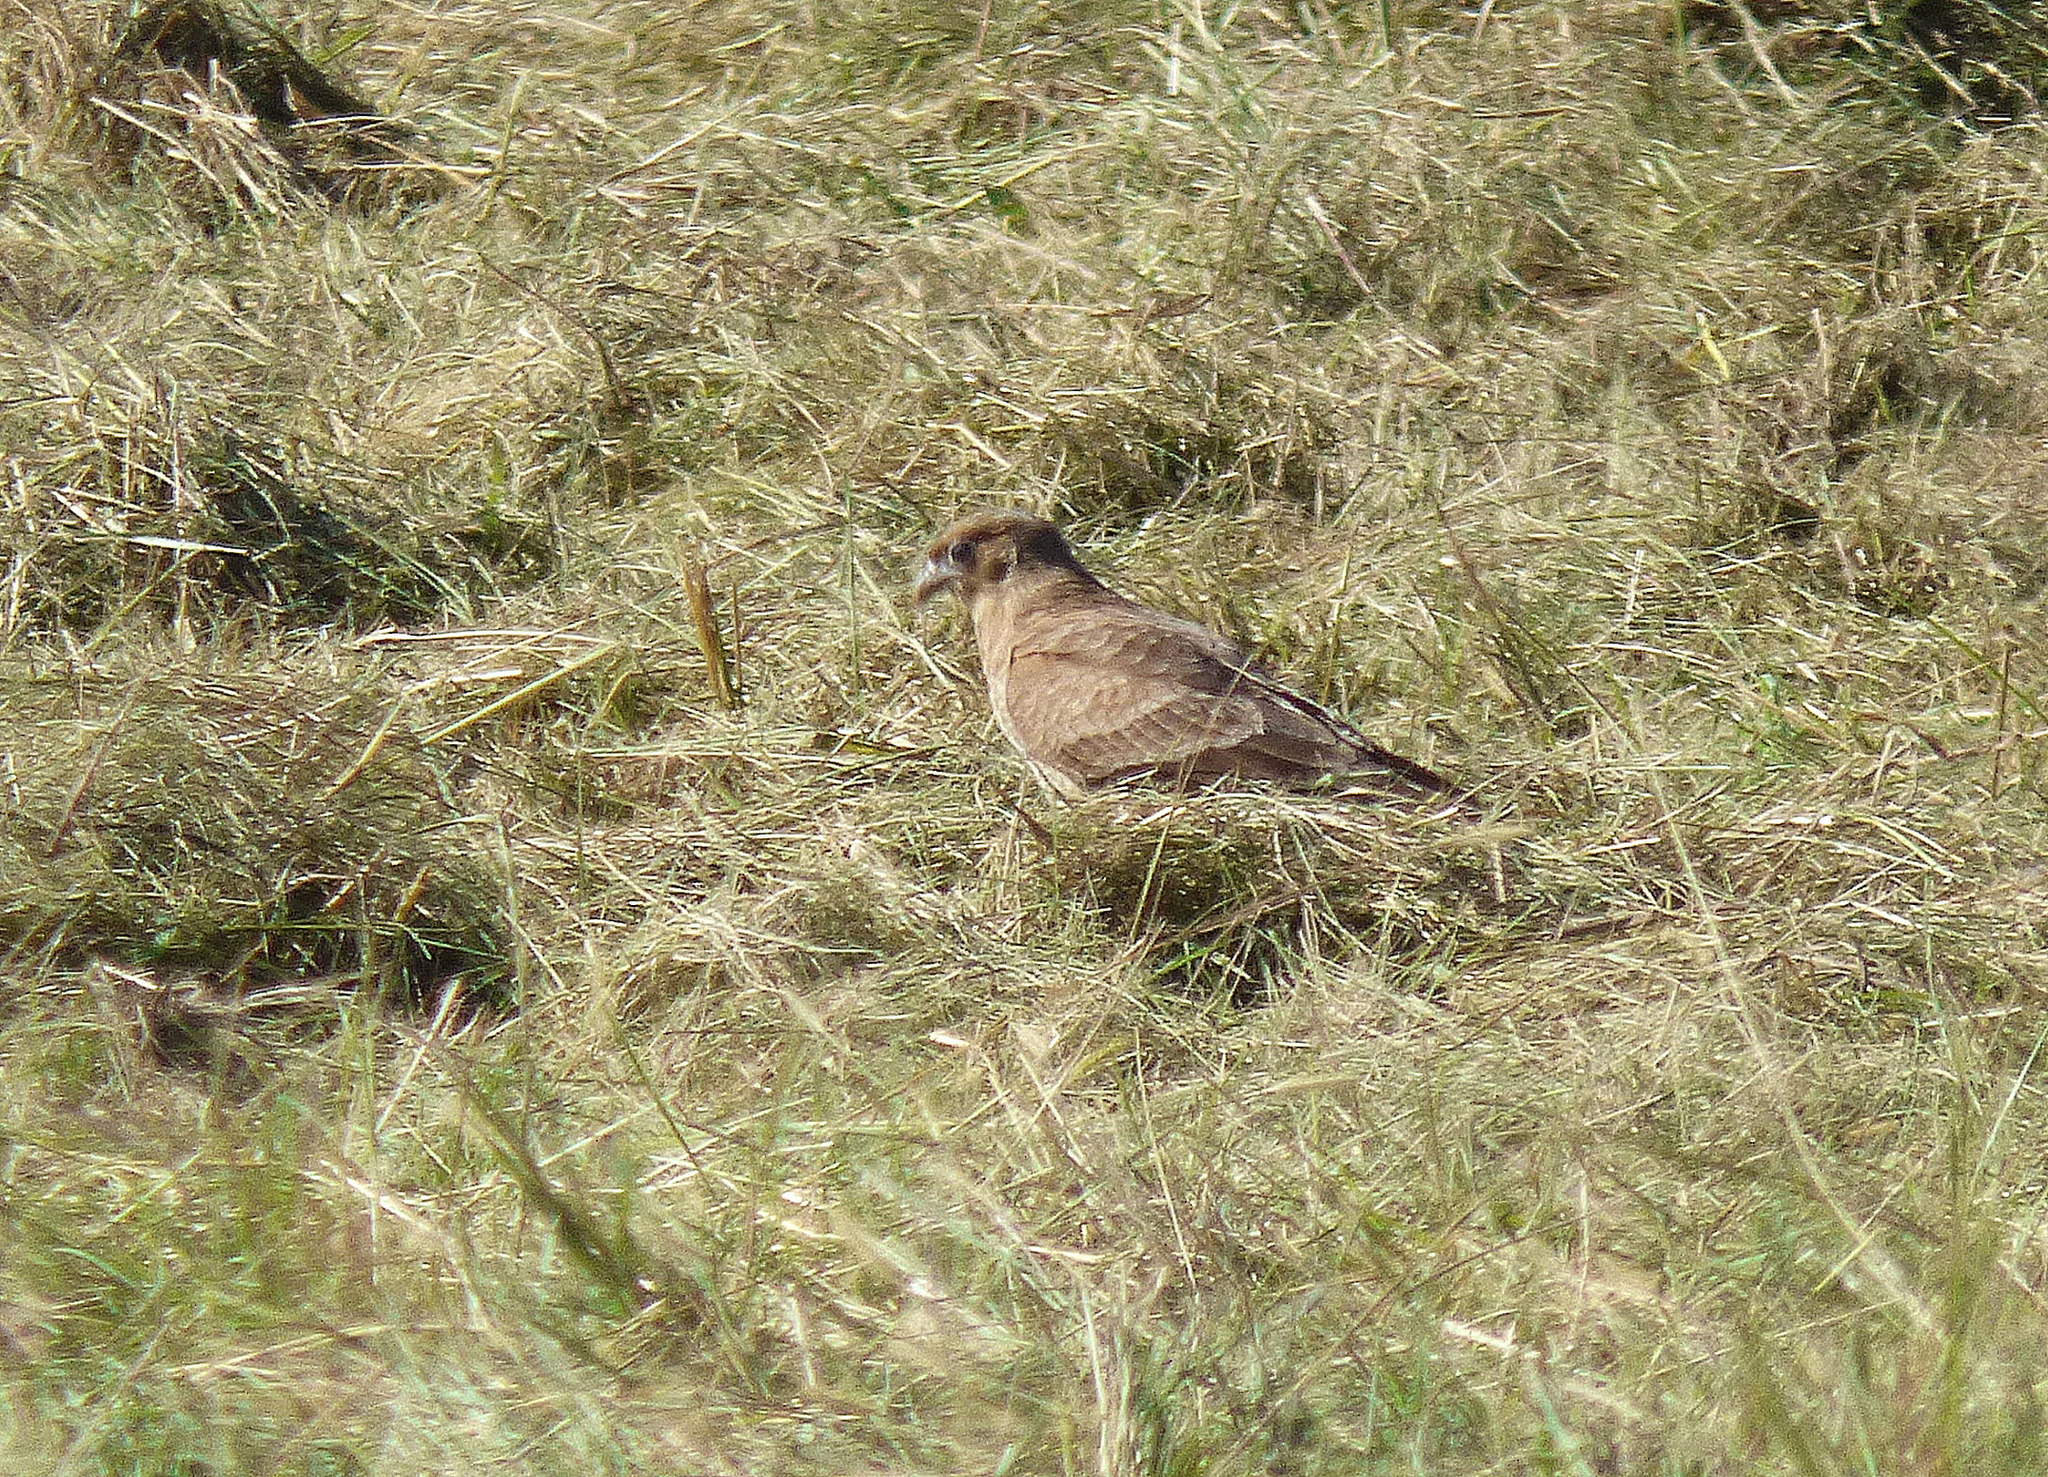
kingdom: Animalia
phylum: Chordata
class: Aves
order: Falconiformes
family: Falconidae
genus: Daptrius
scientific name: Daptrius
